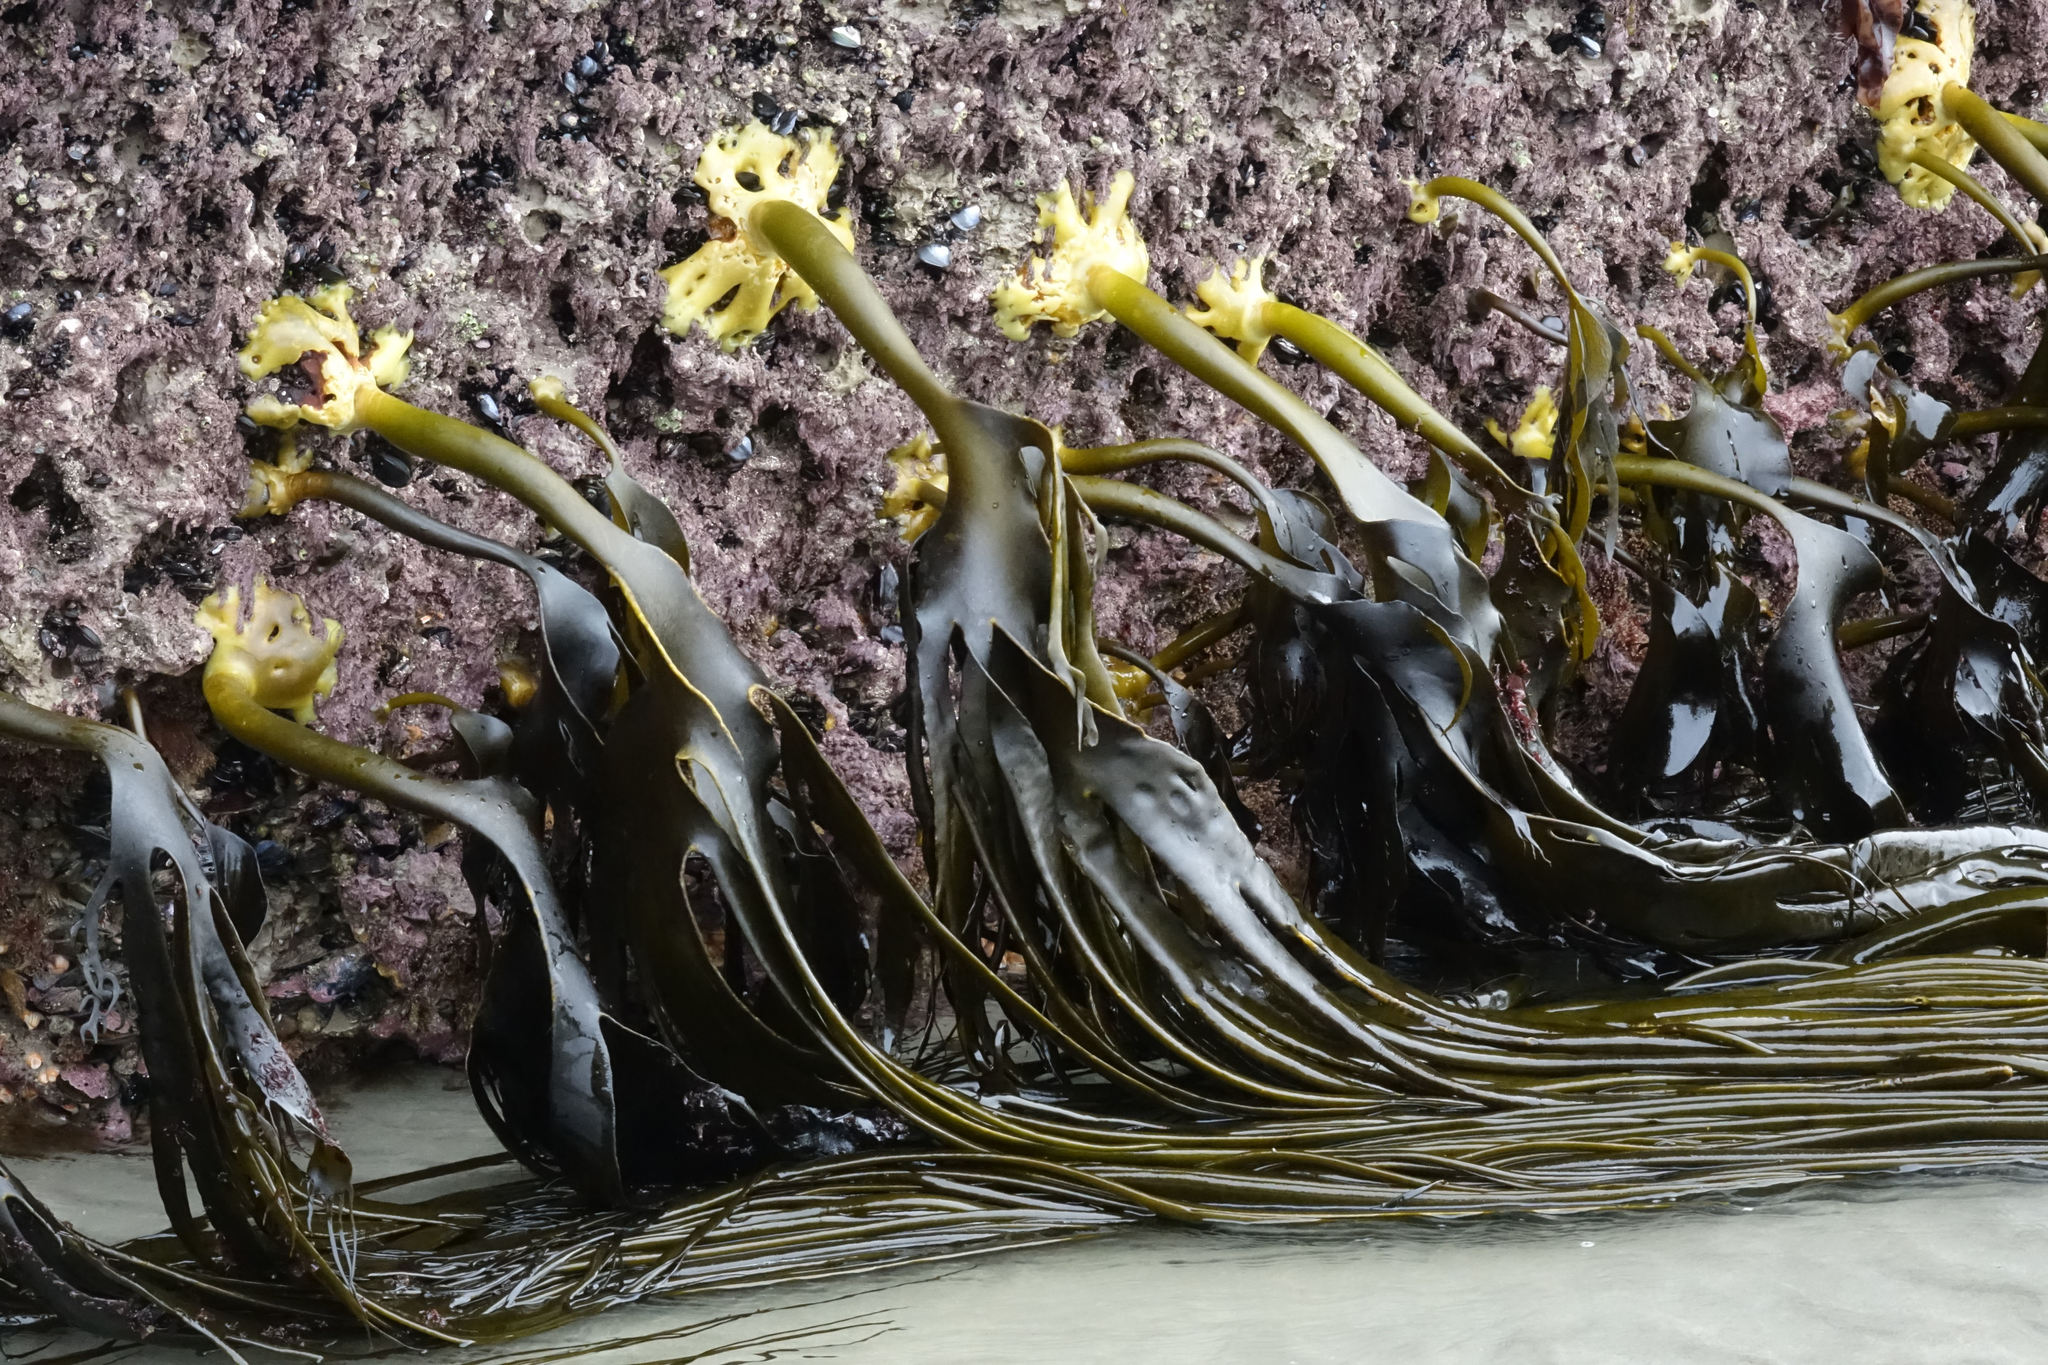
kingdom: Chromista
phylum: Ochrophyta
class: Phaeophyceae
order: Fucales
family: Durvillaeaceae
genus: Durvillaea
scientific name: Durvillaea antarctica
